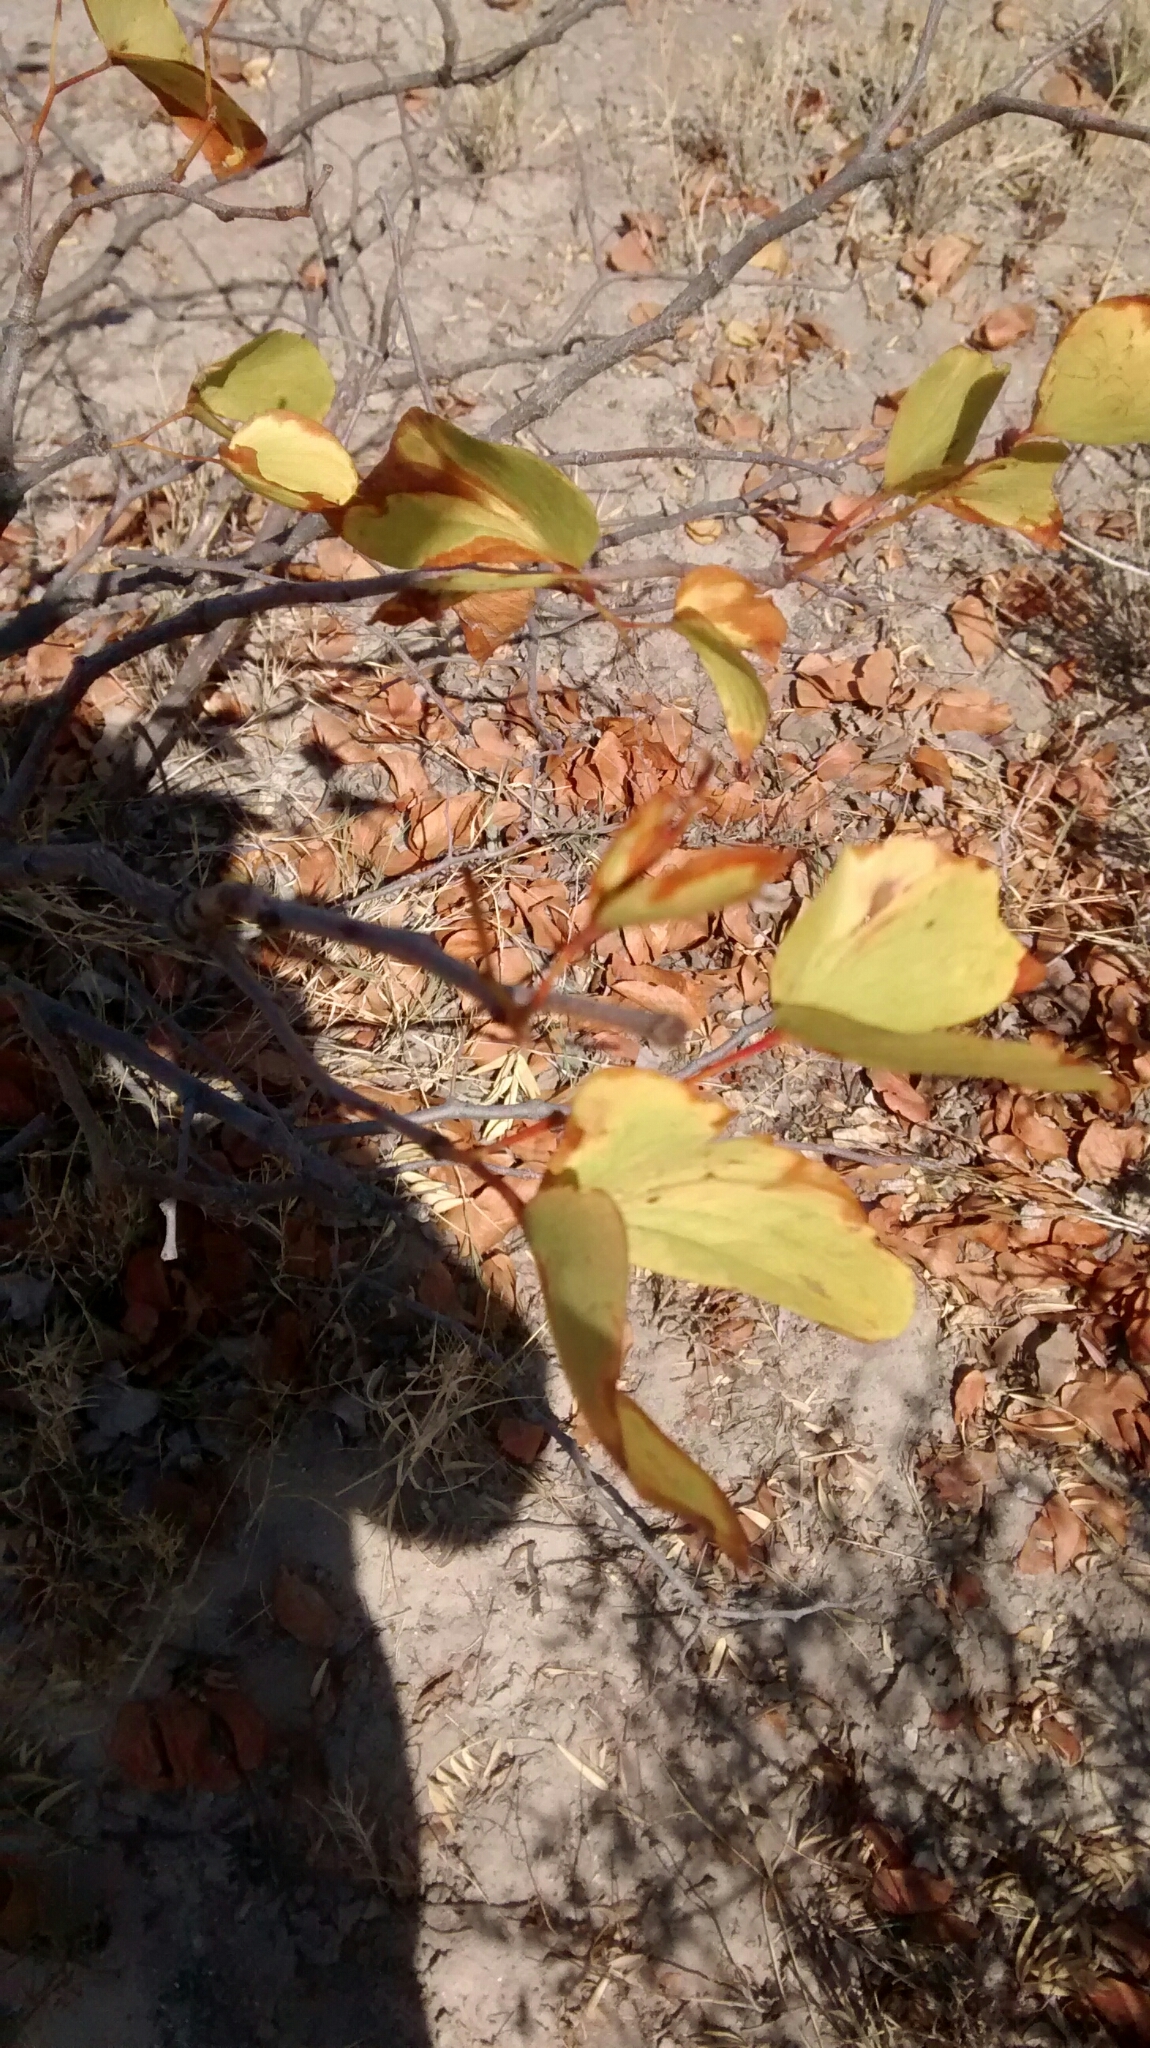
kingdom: Plantae
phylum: Tracheophyta
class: Magnoliopsida
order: Fabales
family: Fabaceae
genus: Colophospermum
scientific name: Colophospermum mopane
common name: Mopane
